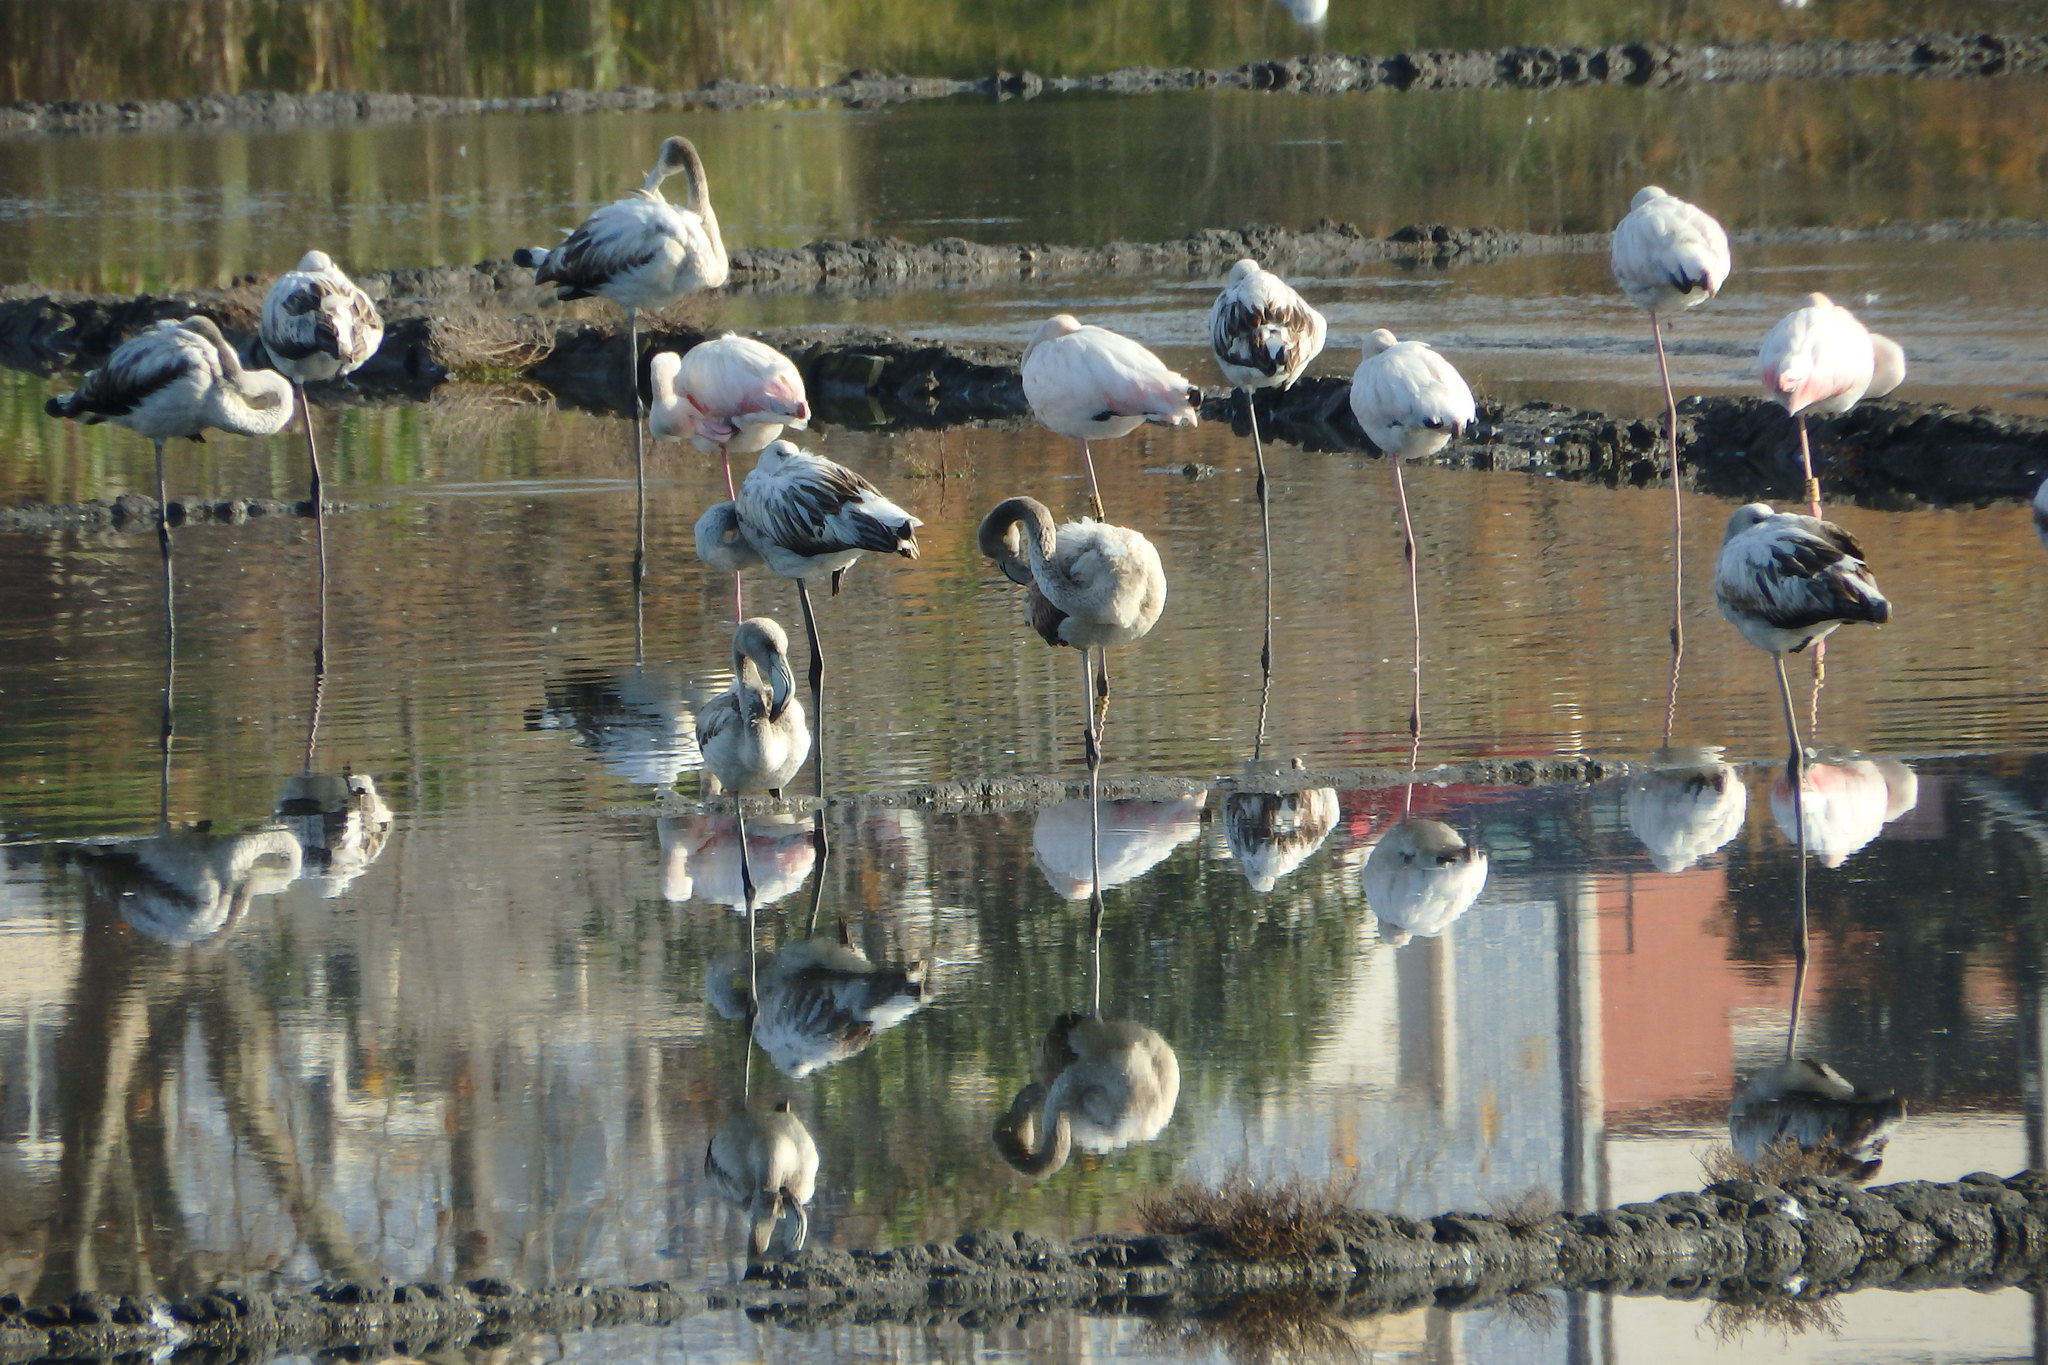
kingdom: Animalia
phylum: Chordata
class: Aves
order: Phoenicopteriformes
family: Phoenicopteridae
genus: Phoenicopterus
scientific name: Phoenicopterus roseus
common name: Greater flamingo
